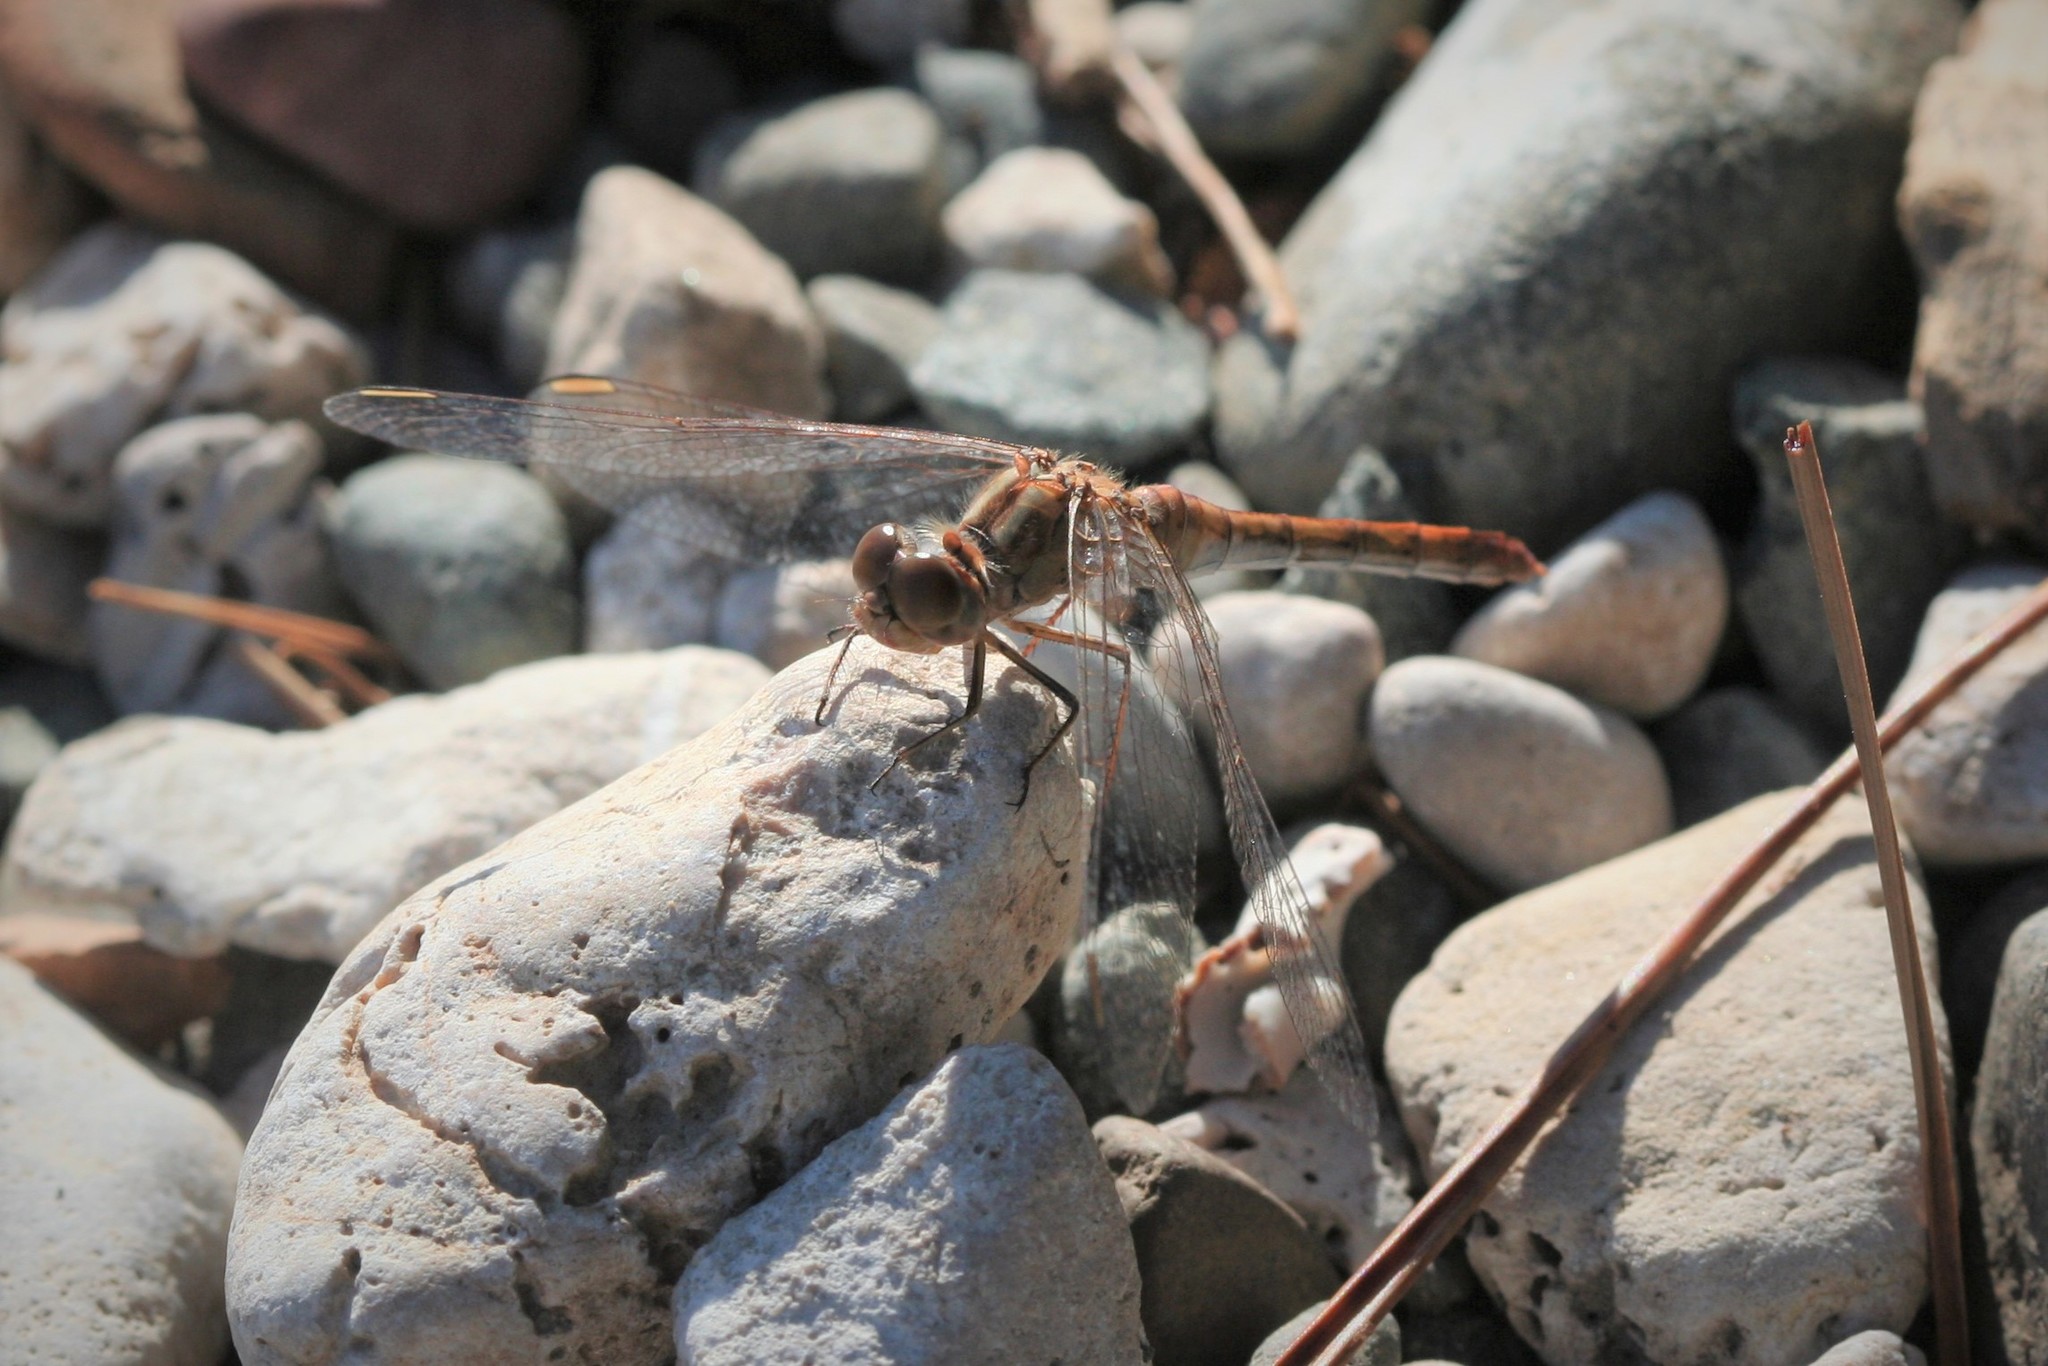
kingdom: Animalia
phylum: Arthropoda
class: Insecta
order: Odonata
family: Libellulidae
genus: Sympetrum
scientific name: Sympetrum meridionale
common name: Southern darter
